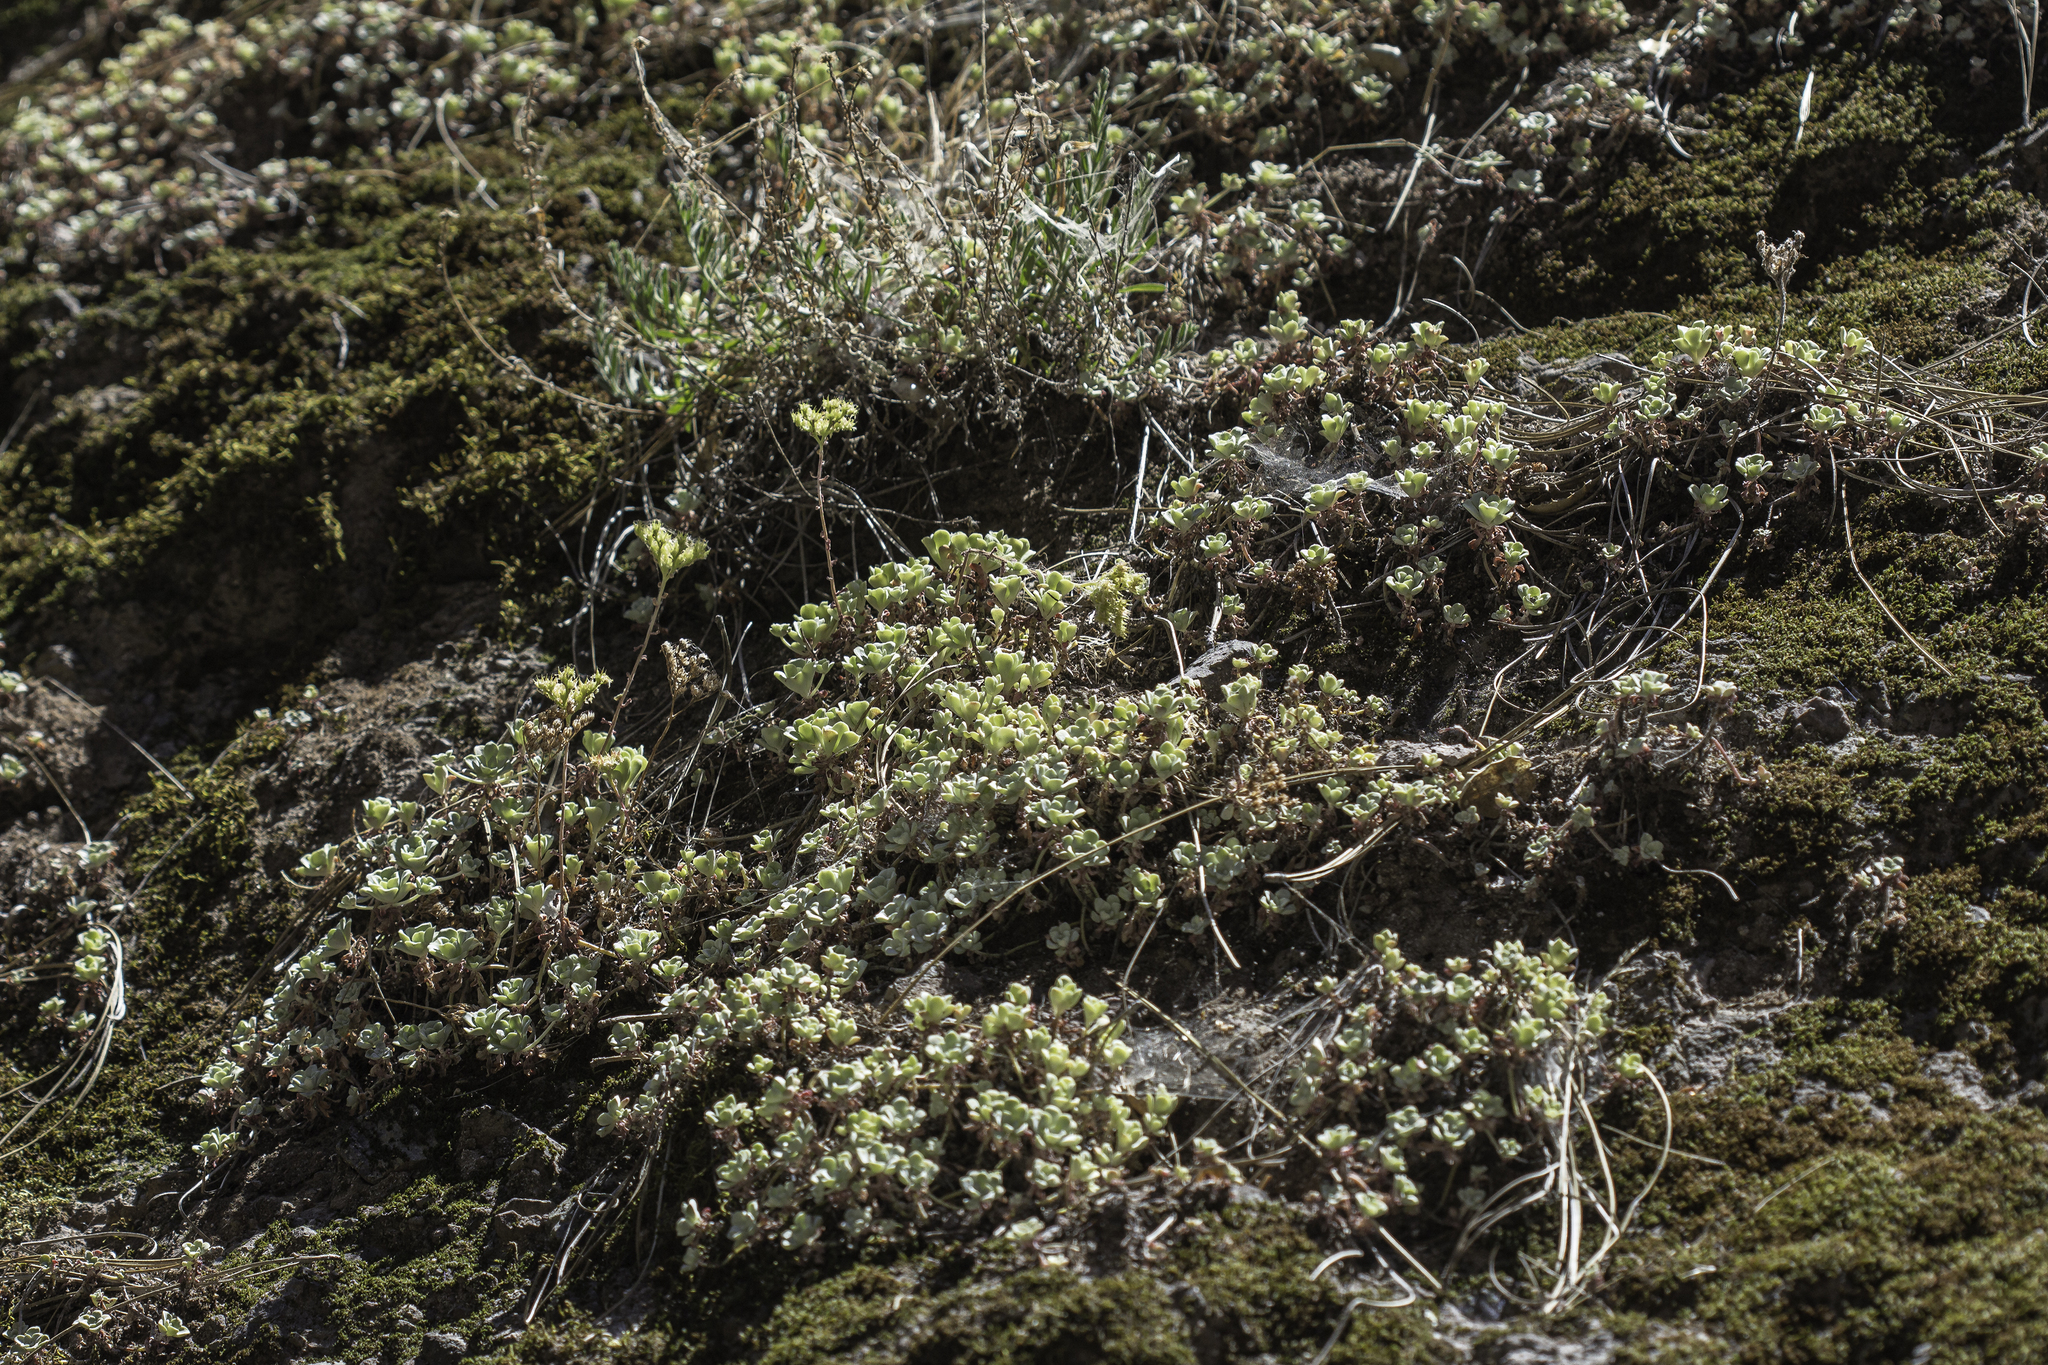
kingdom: Plantae
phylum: Tracheophyta
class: Magnoliopsida
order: Saxifragales
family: Crassulaceae
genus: Sedum
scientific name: Sedum spathulifolium
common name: Colorado stonecrop
